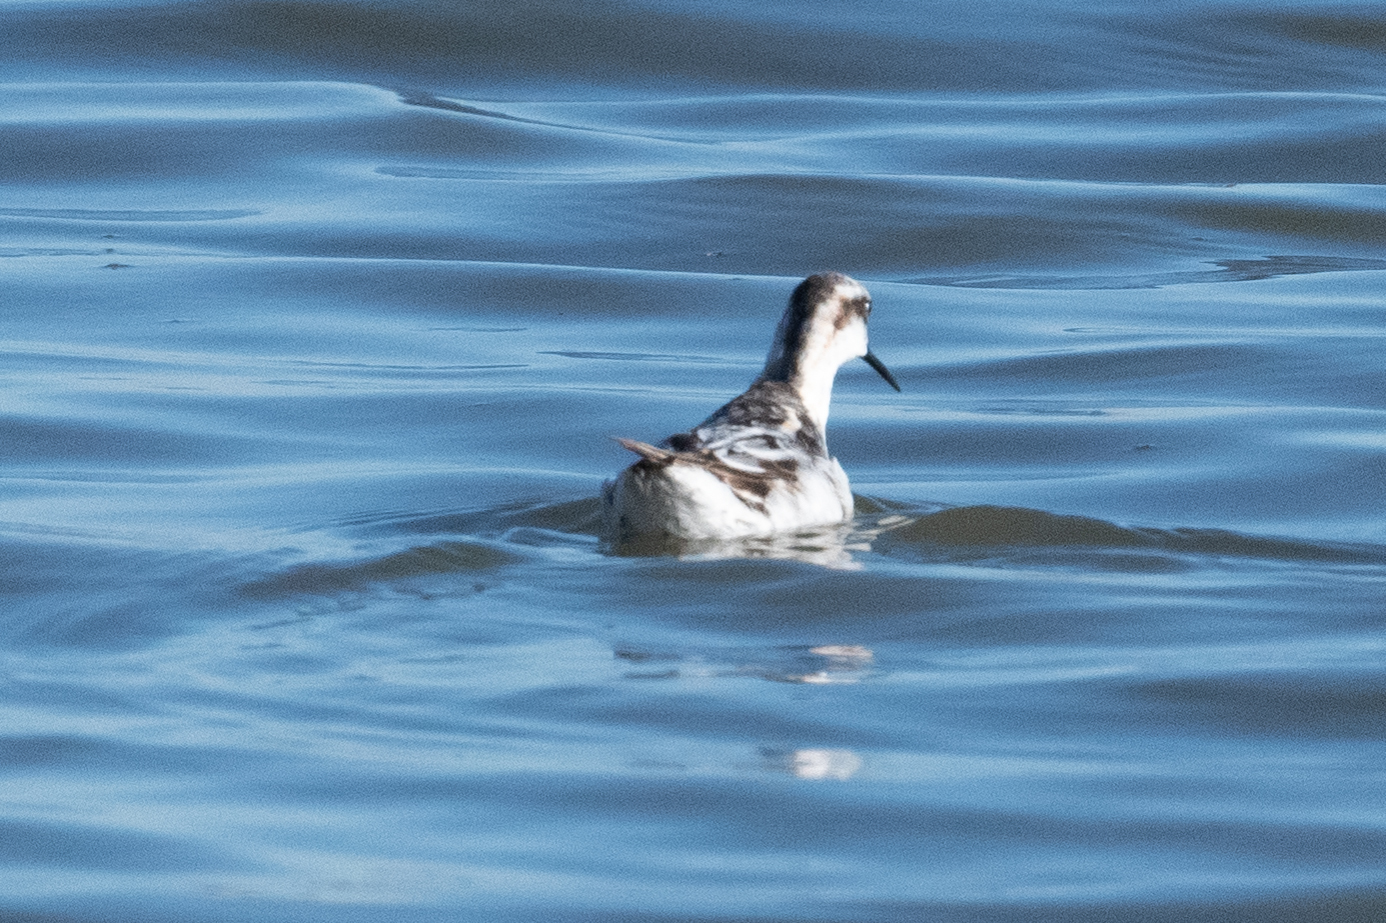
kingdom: Animalia
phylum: Chordata
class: Aves
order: Charadriiformes
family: Scolopacidae
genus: Phalaropus
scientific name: Phalaropus lobatus
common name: Red-necked phalarope
